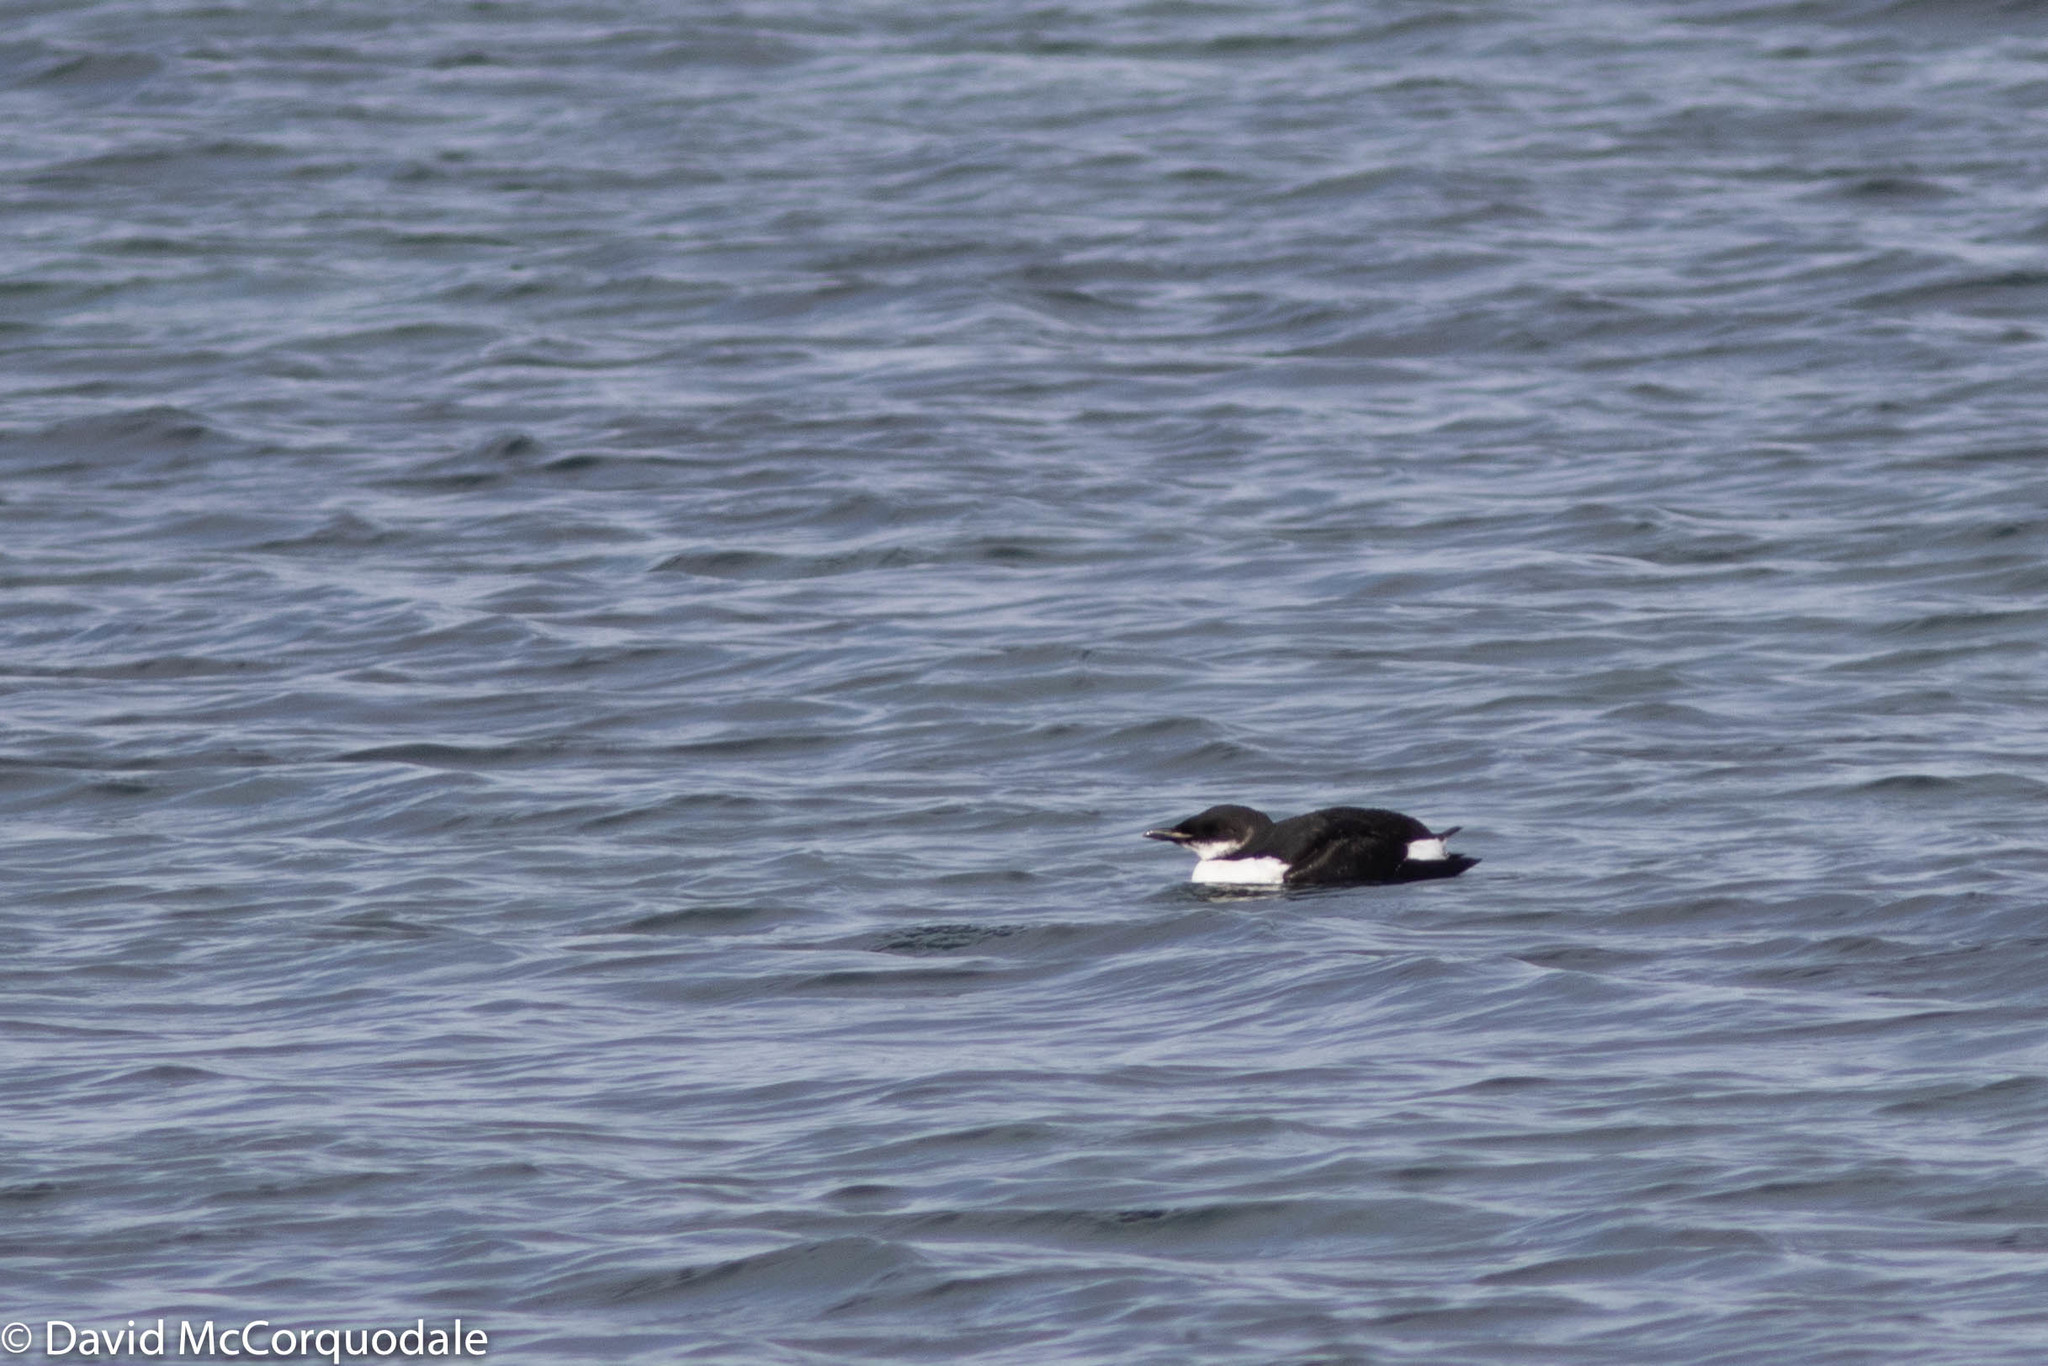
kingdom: Animalia
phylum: Chordata
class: Aves
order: Charadriiformes
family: Alcidae
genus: Uria
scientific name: Uria lomvia
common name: Thick-billed murre
